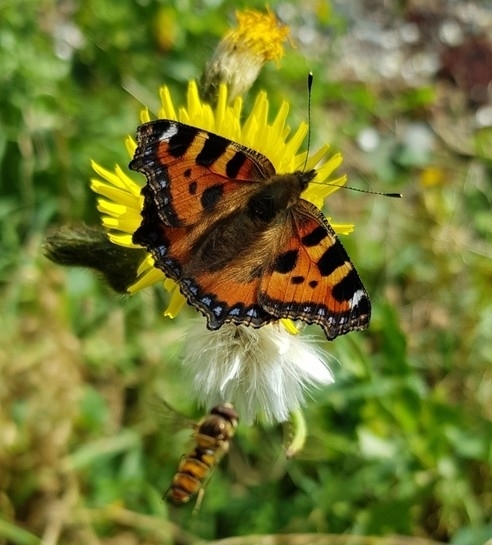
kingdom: Animalia
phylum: Arthropoda
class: Insecta
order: Lepidoptera
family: Nymphalidae
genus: Aglais
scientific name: Aglais urticae
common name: Small tortoiseshell
